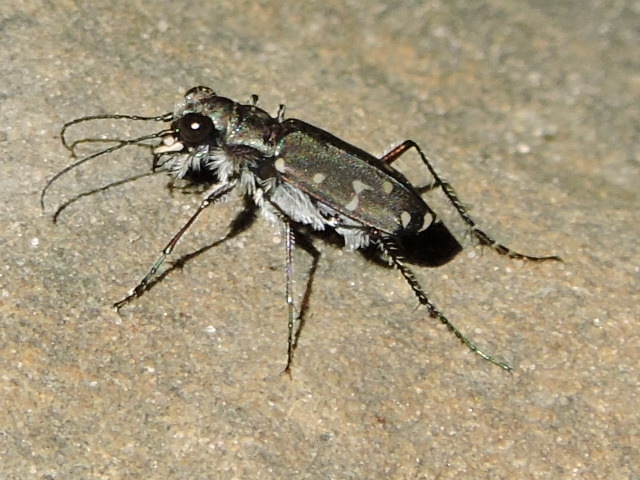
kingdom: Animalia
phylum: Arthropoda
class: Insecta
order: Coleoptera
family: Carabidae
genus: Cicindela
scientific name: Cicindela duodecimguttata
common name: Twelve-spotted tiger beetle
